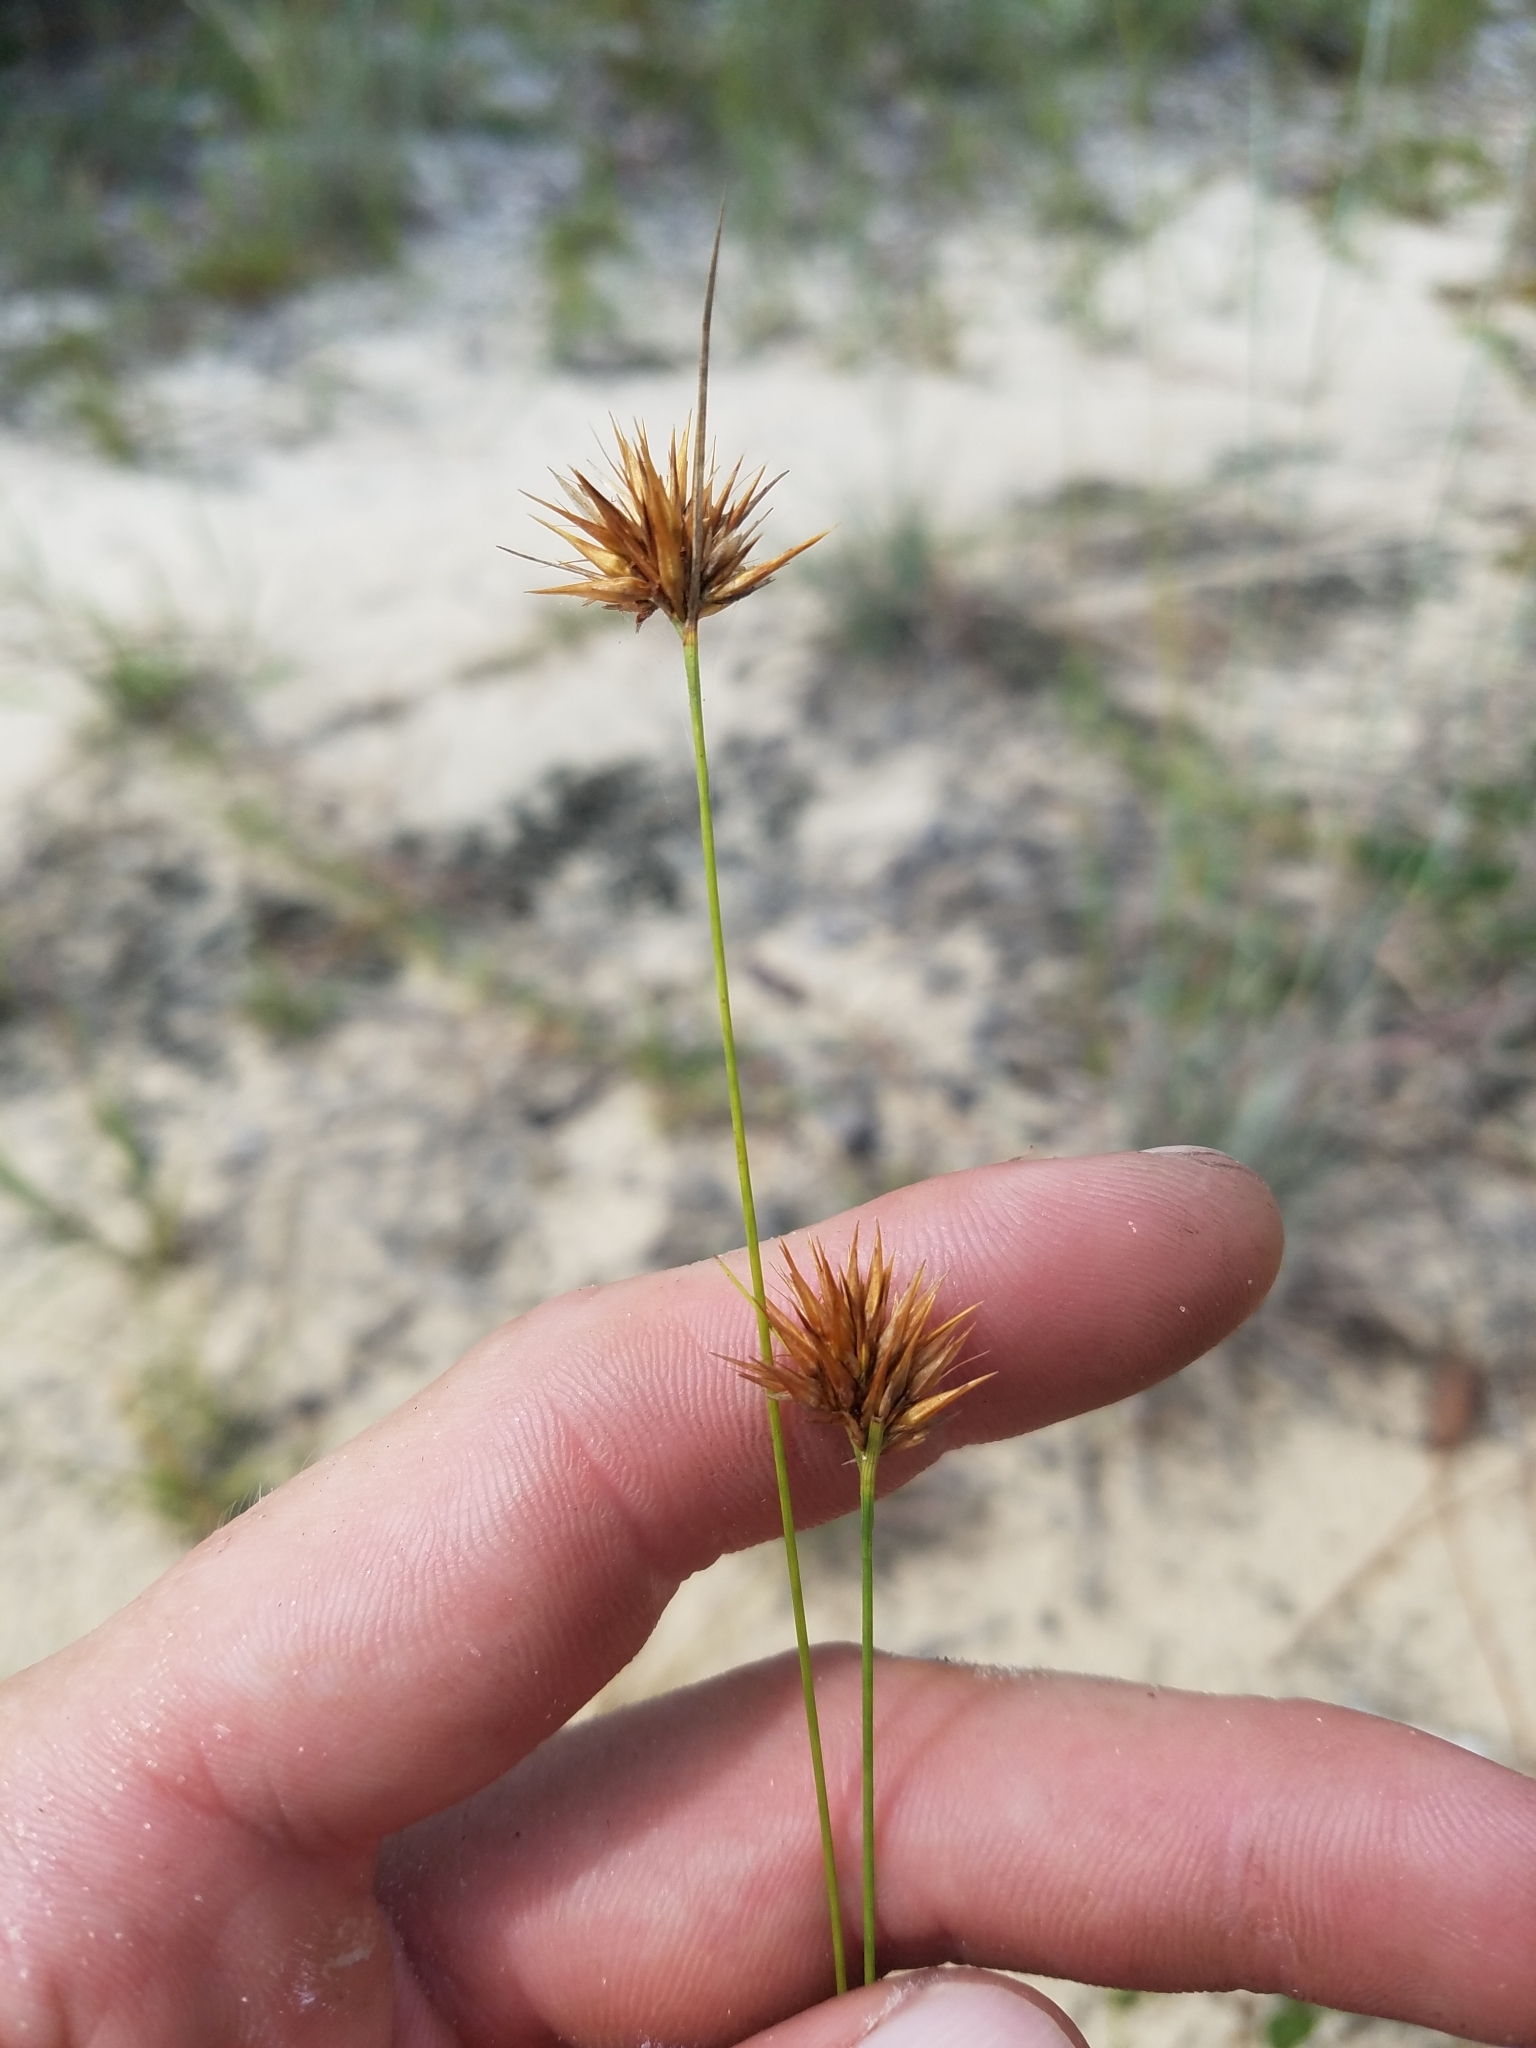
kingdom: Plantae
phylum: Tracheophyta
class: Liliopsida
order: Poales
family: Cyperaceae
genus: Rhynchospora
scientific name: Rhynchospora megaplumosa
